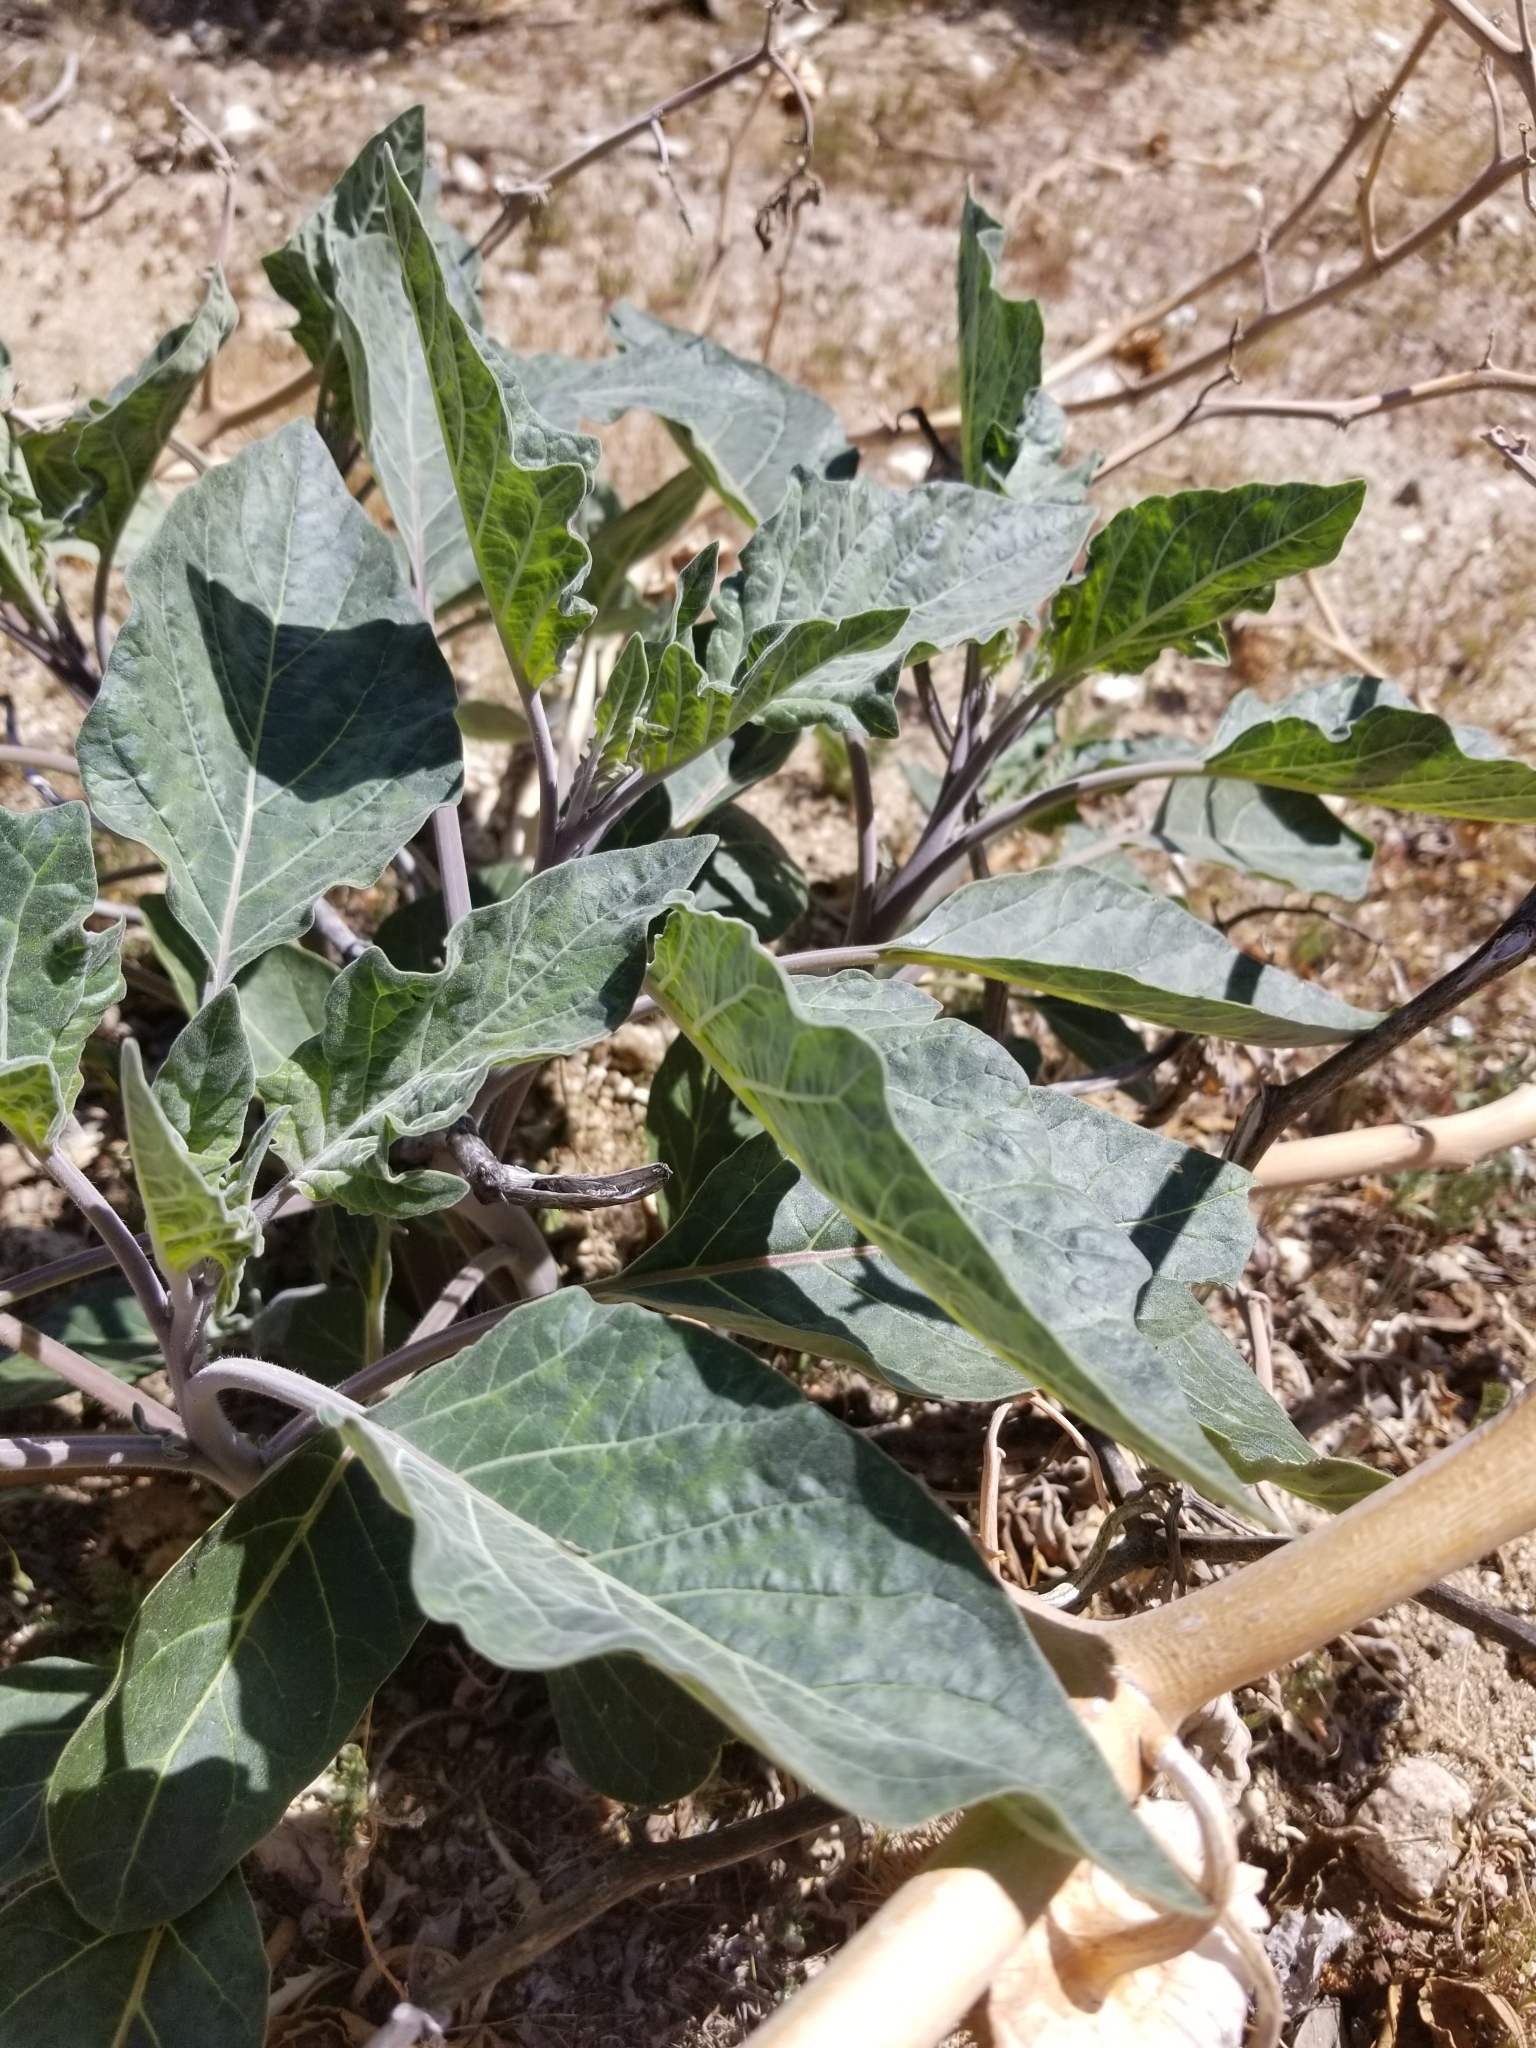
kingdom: Plantae
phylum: Tracheophyta
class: Magnoliopsida
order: Solanales
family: Solanaceae
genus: Datura
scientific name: Datura wrightii
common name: Sacred thorn-apple
